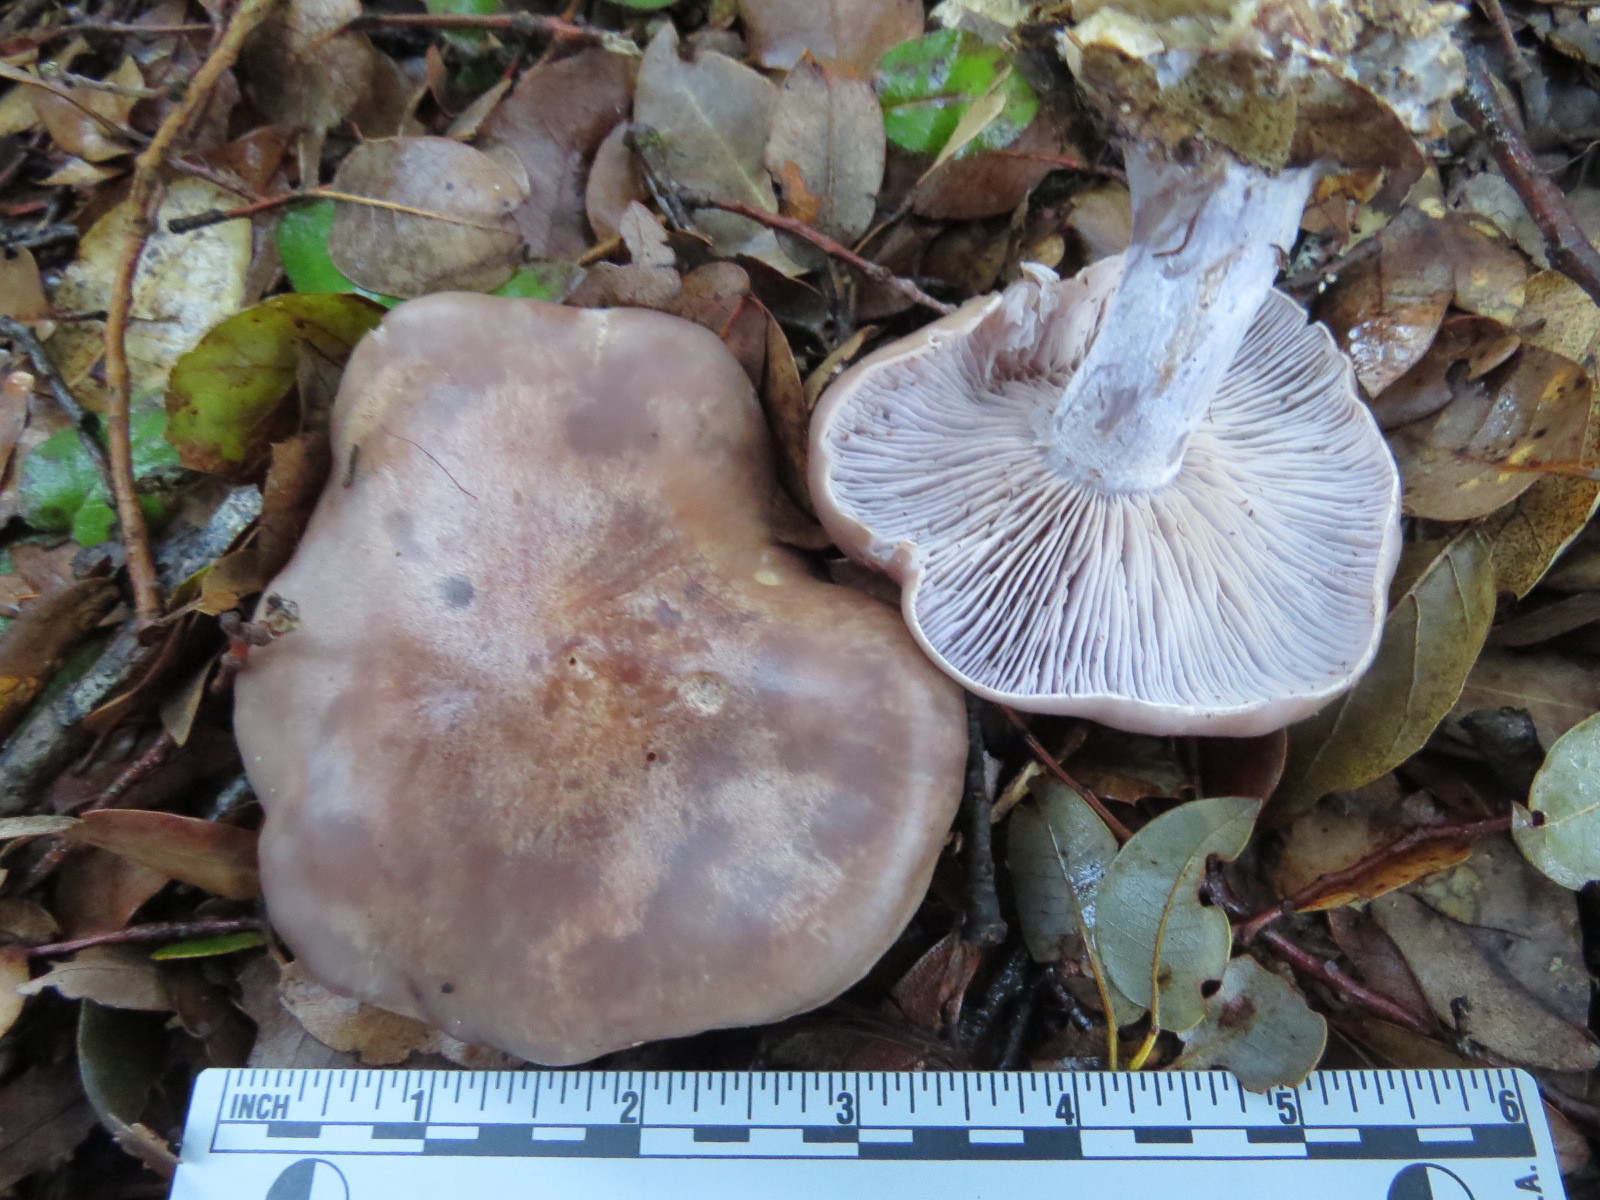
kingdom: Fungi
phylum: Basidiomycota
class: Agaricomycetes
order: Agaricales
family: Tricholomataceae
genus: Collybia
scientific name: Collybia
